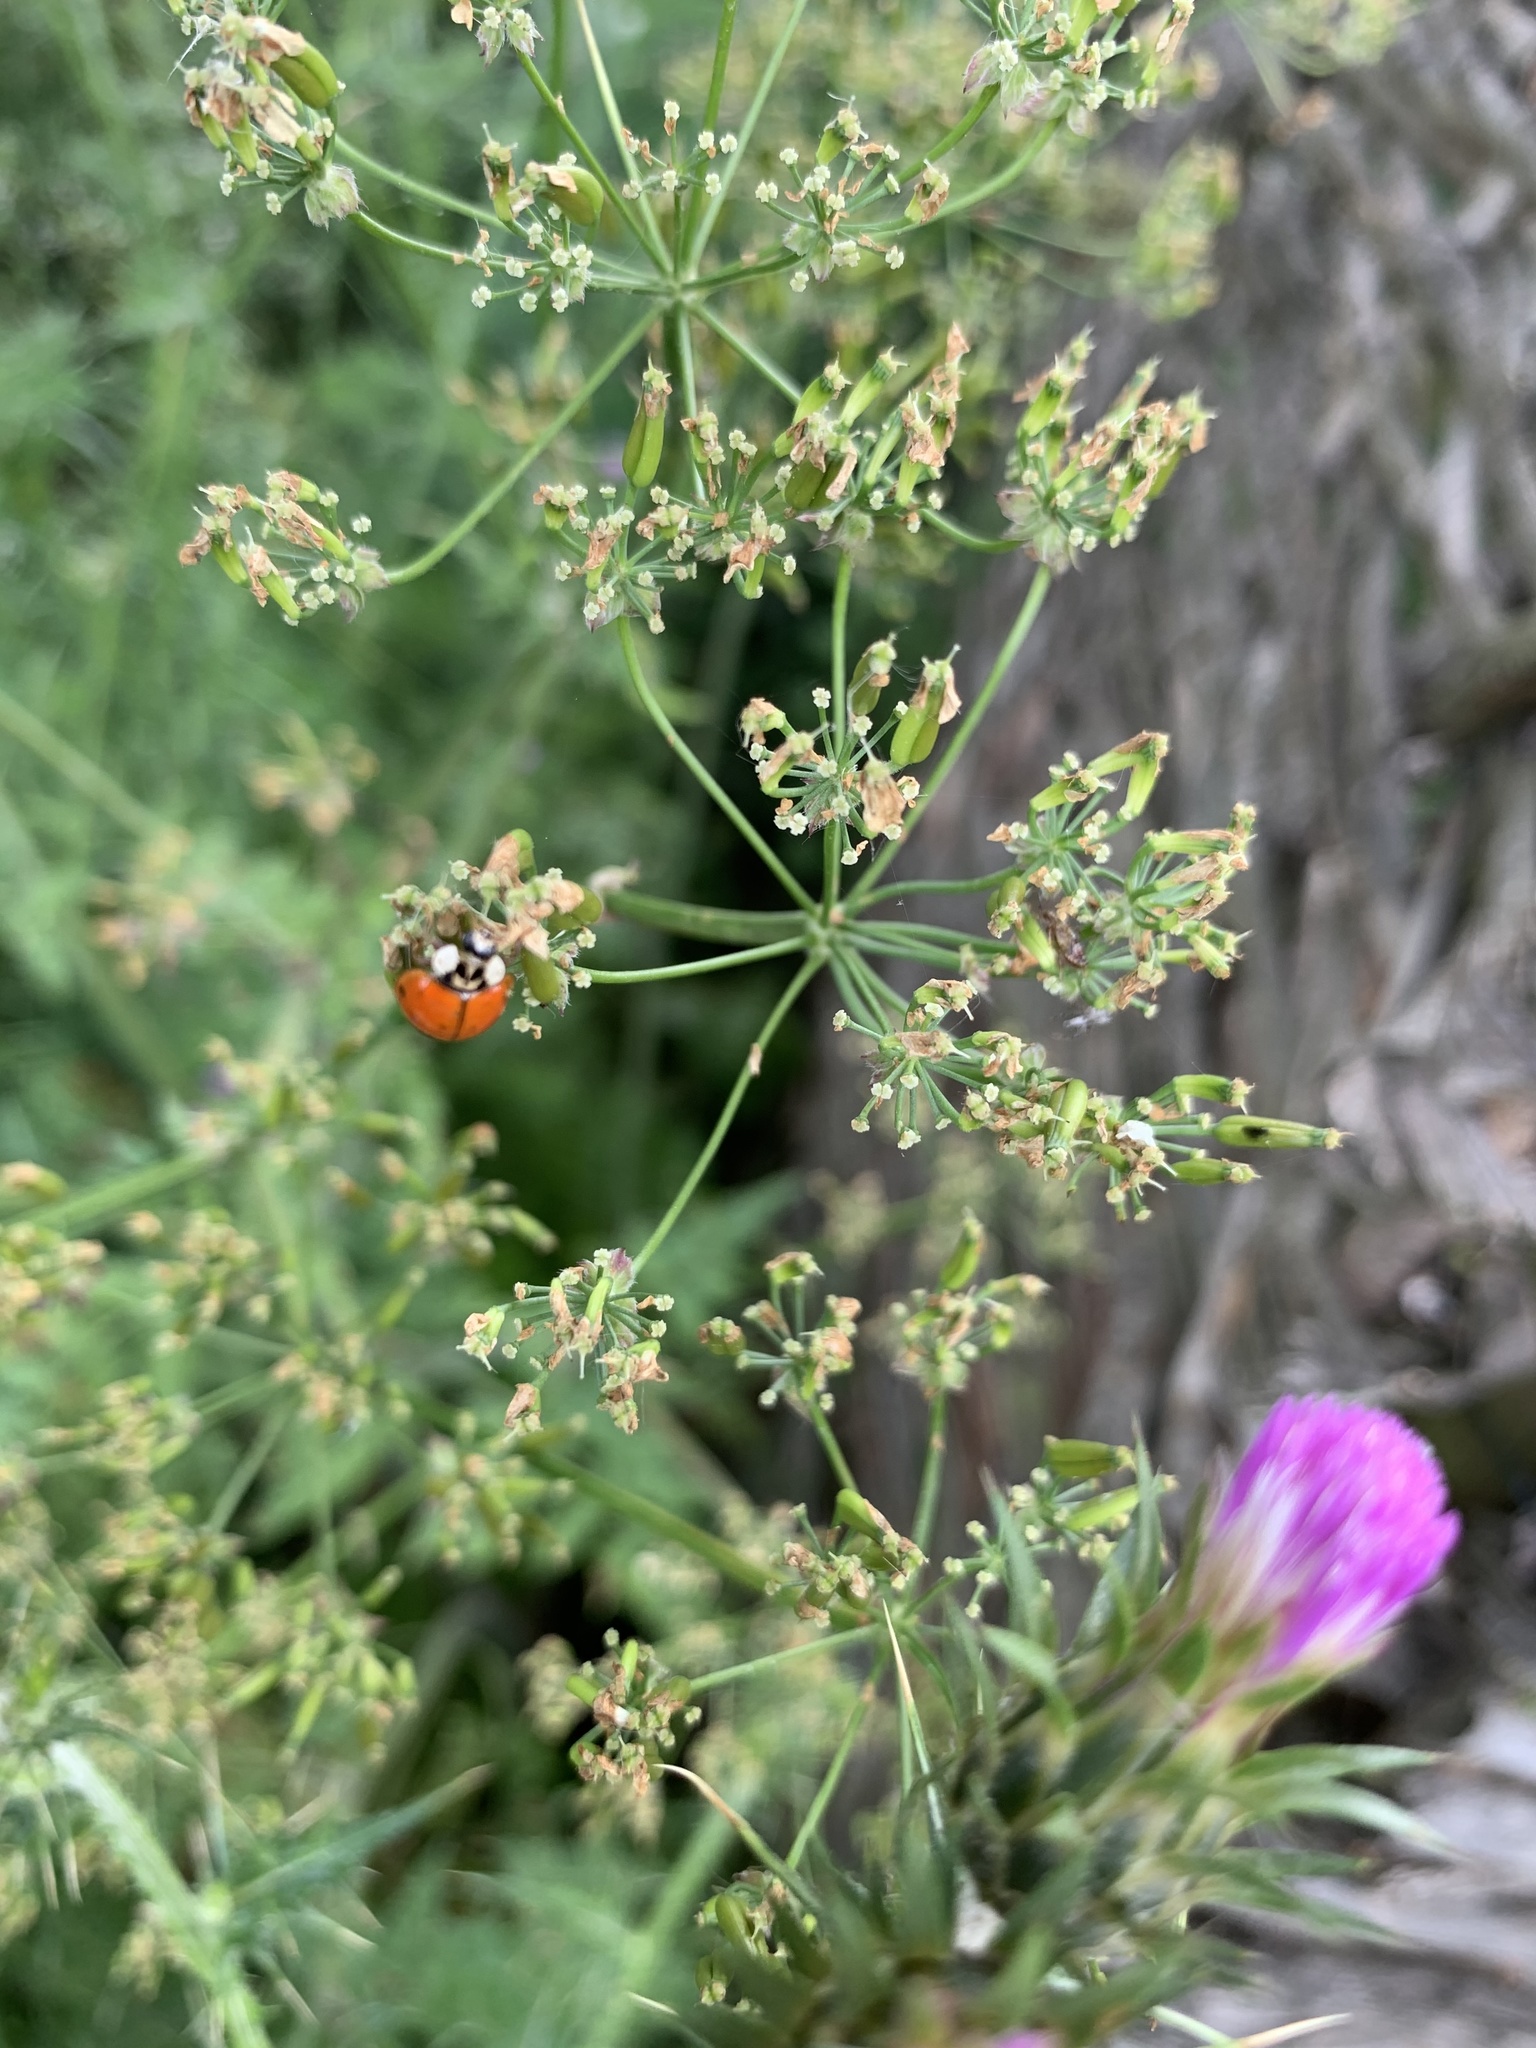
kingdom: Animalia
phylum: Arthropoda
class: Insecta
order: Coleoptera
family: Coccinellidae
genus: Harmonia
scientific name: Harmonia axyridis
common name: Harlequin ladybird
